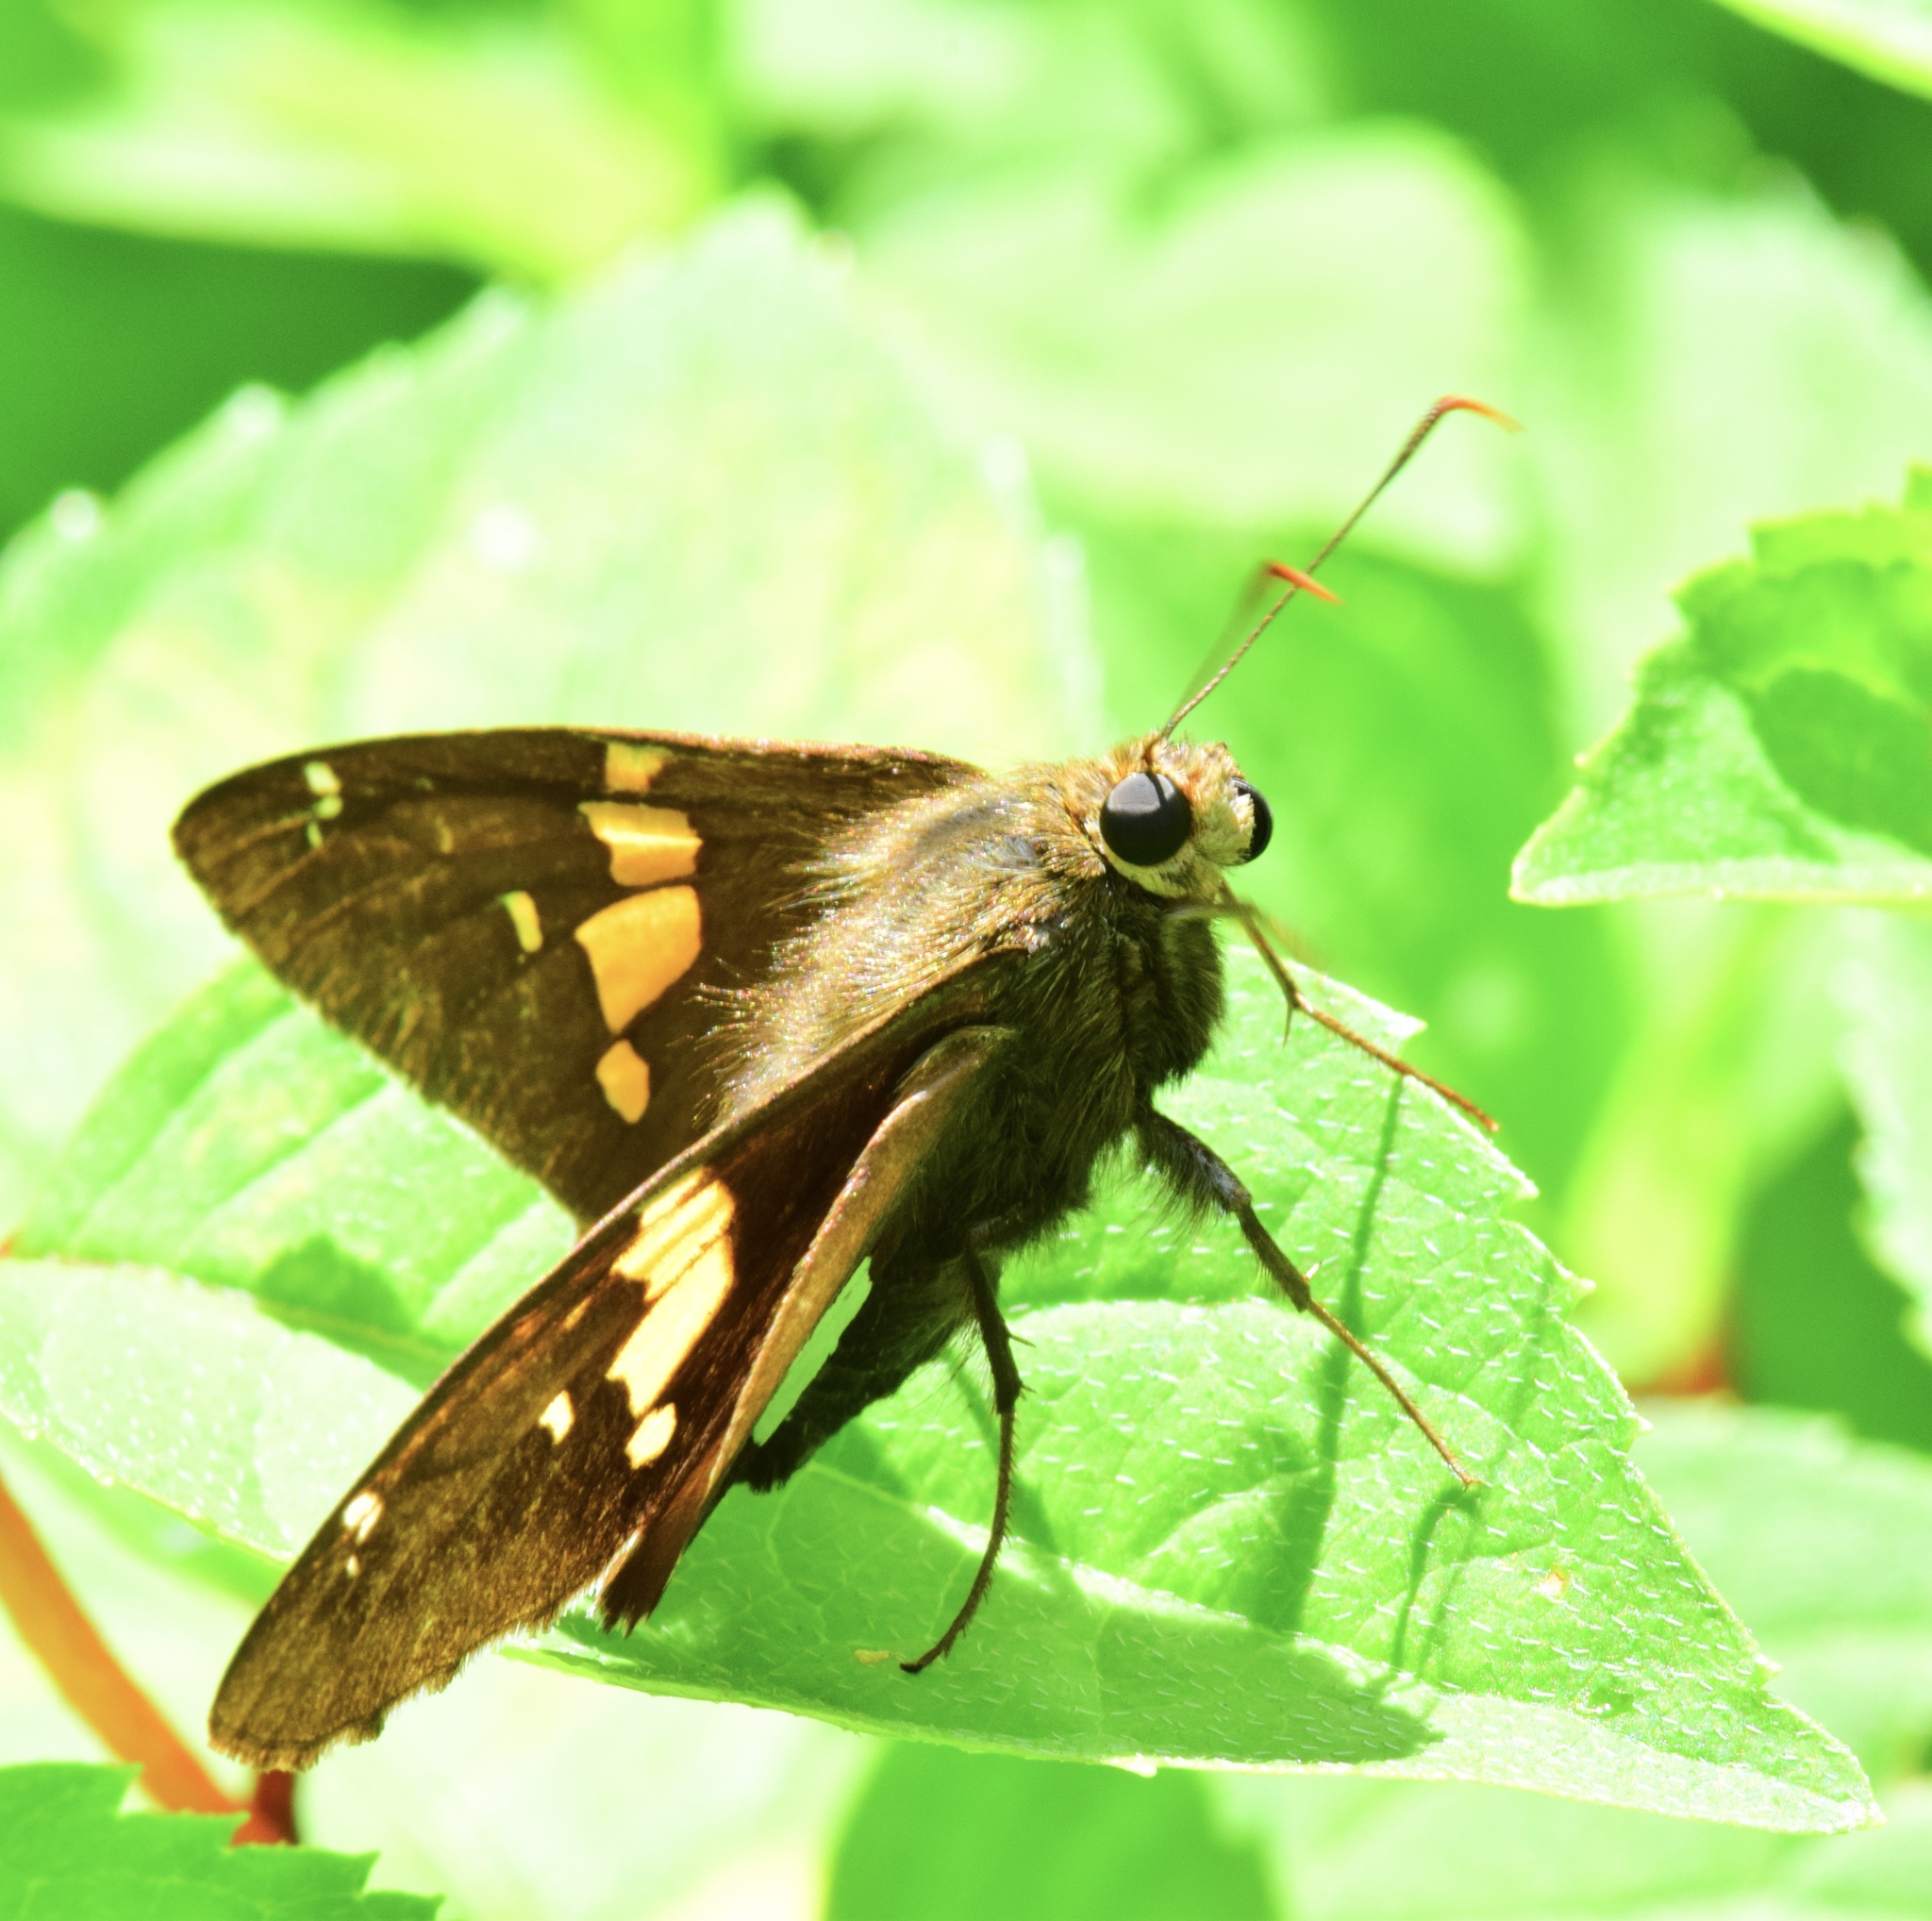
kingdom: Animalia
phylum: Arthropoda
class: Insecta
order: Lepidoptera
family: Hesperiidae
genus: Epargyreus
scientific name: Epargyreus clarus
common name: Silver-spotted skipper
